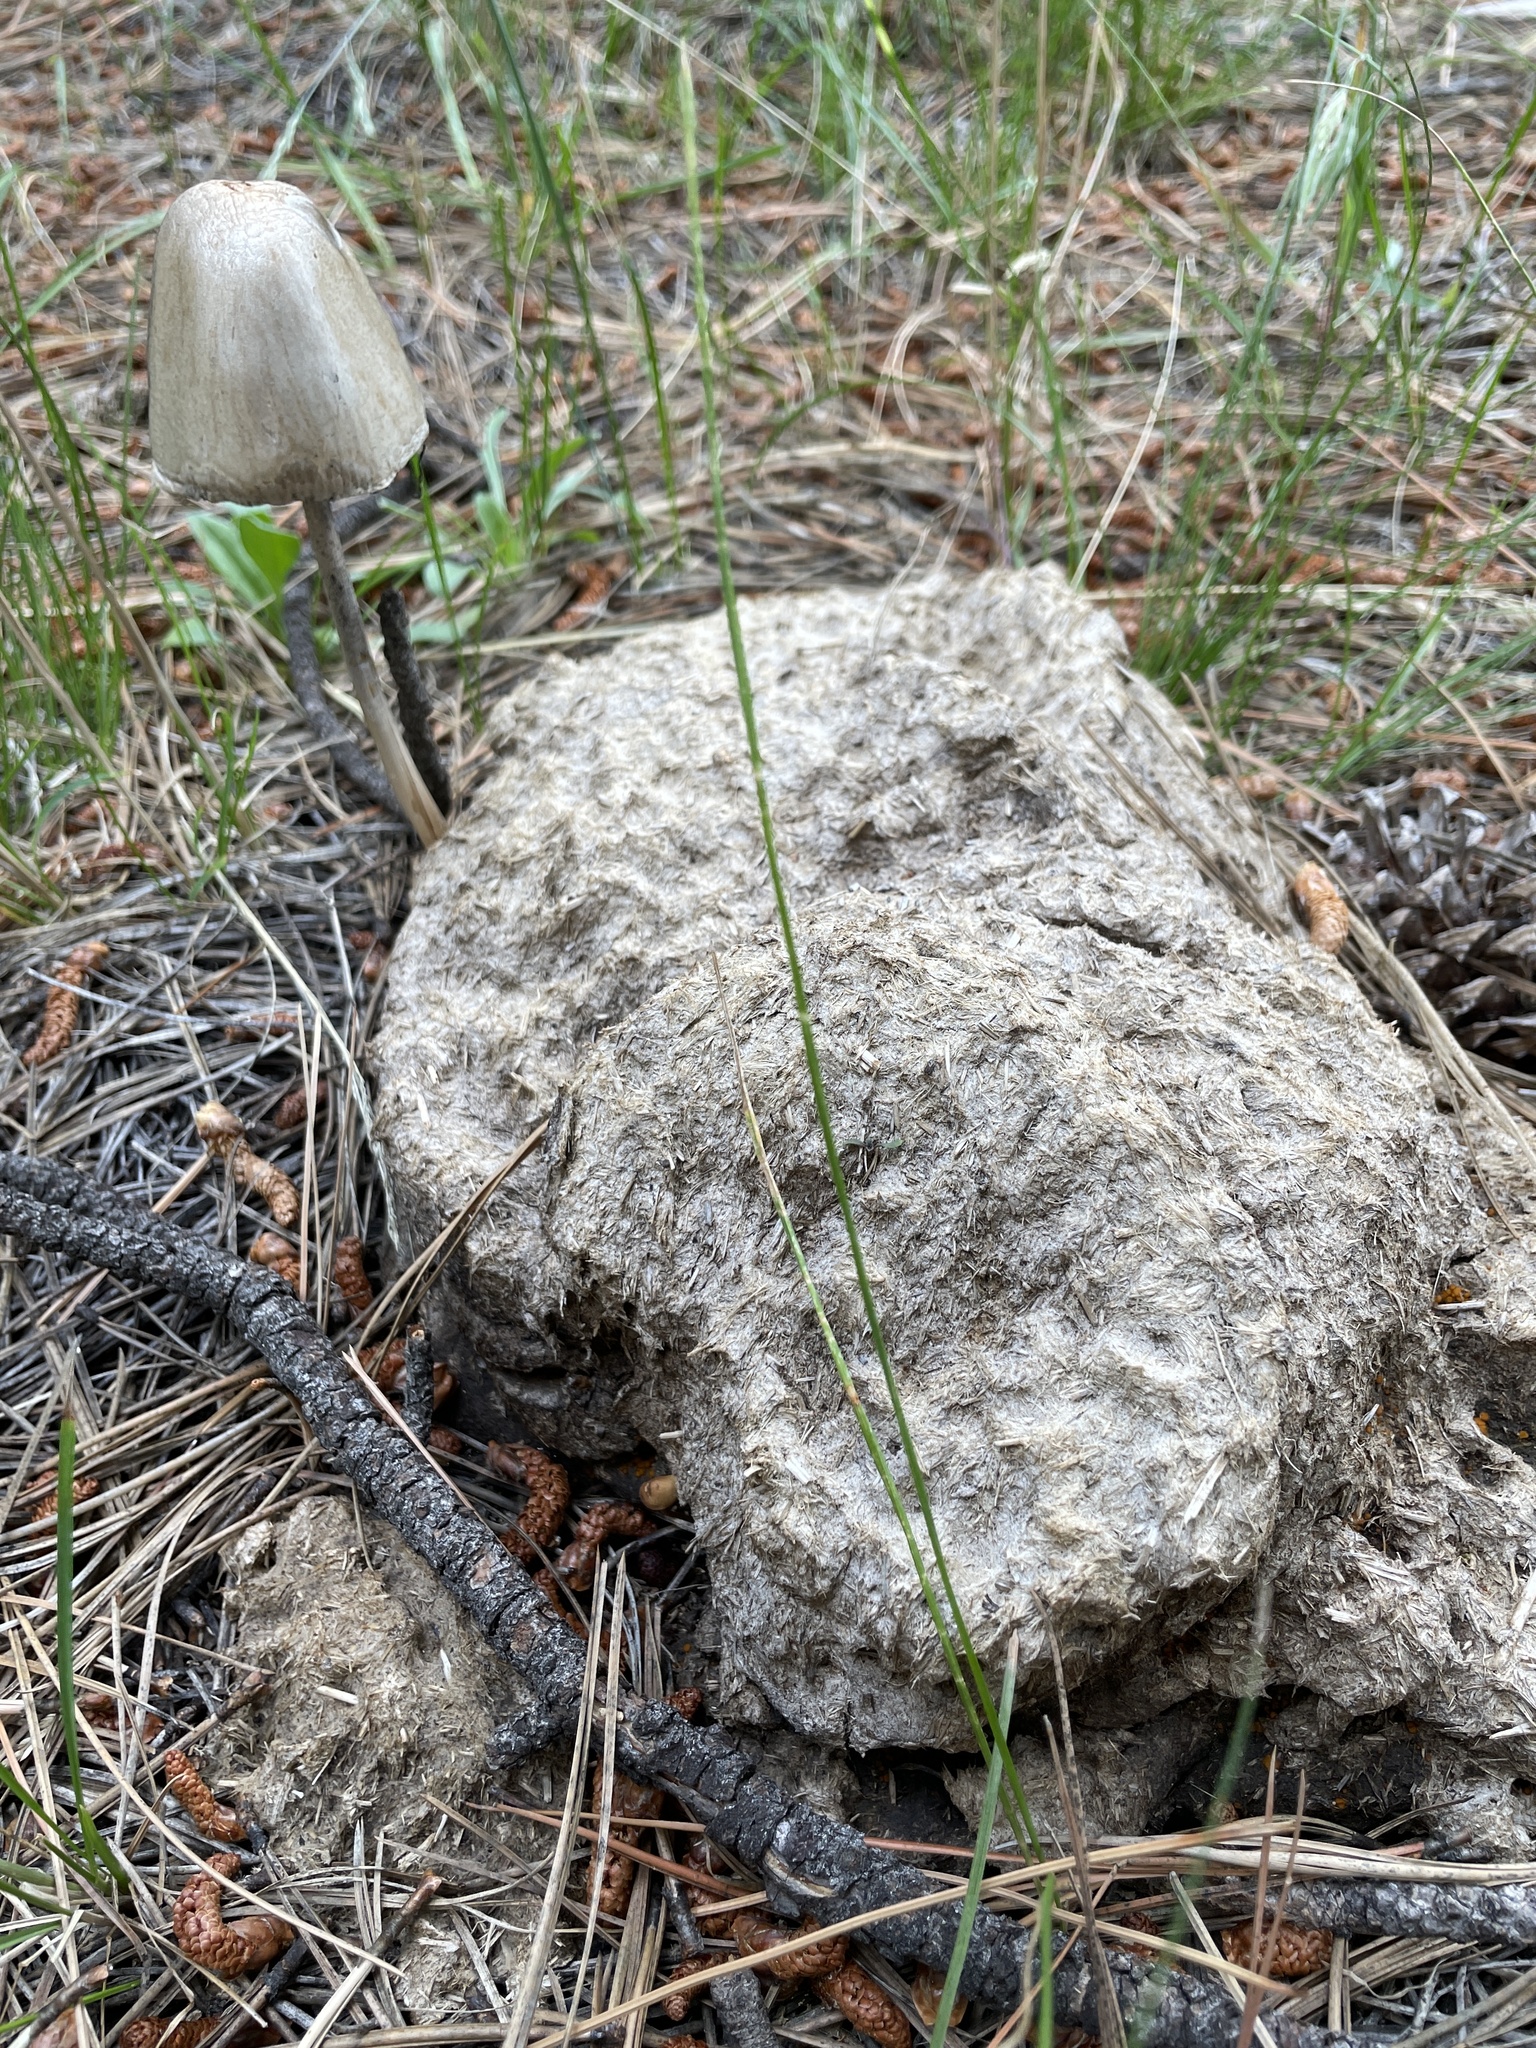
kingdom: Fungi
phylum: Basidiomycota
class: Agaricomycetes
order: Agaricales
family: Bolbitiaceae
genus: Panaeolus
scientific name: Panaeolus semiovatus
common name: Shiny mottlegill
